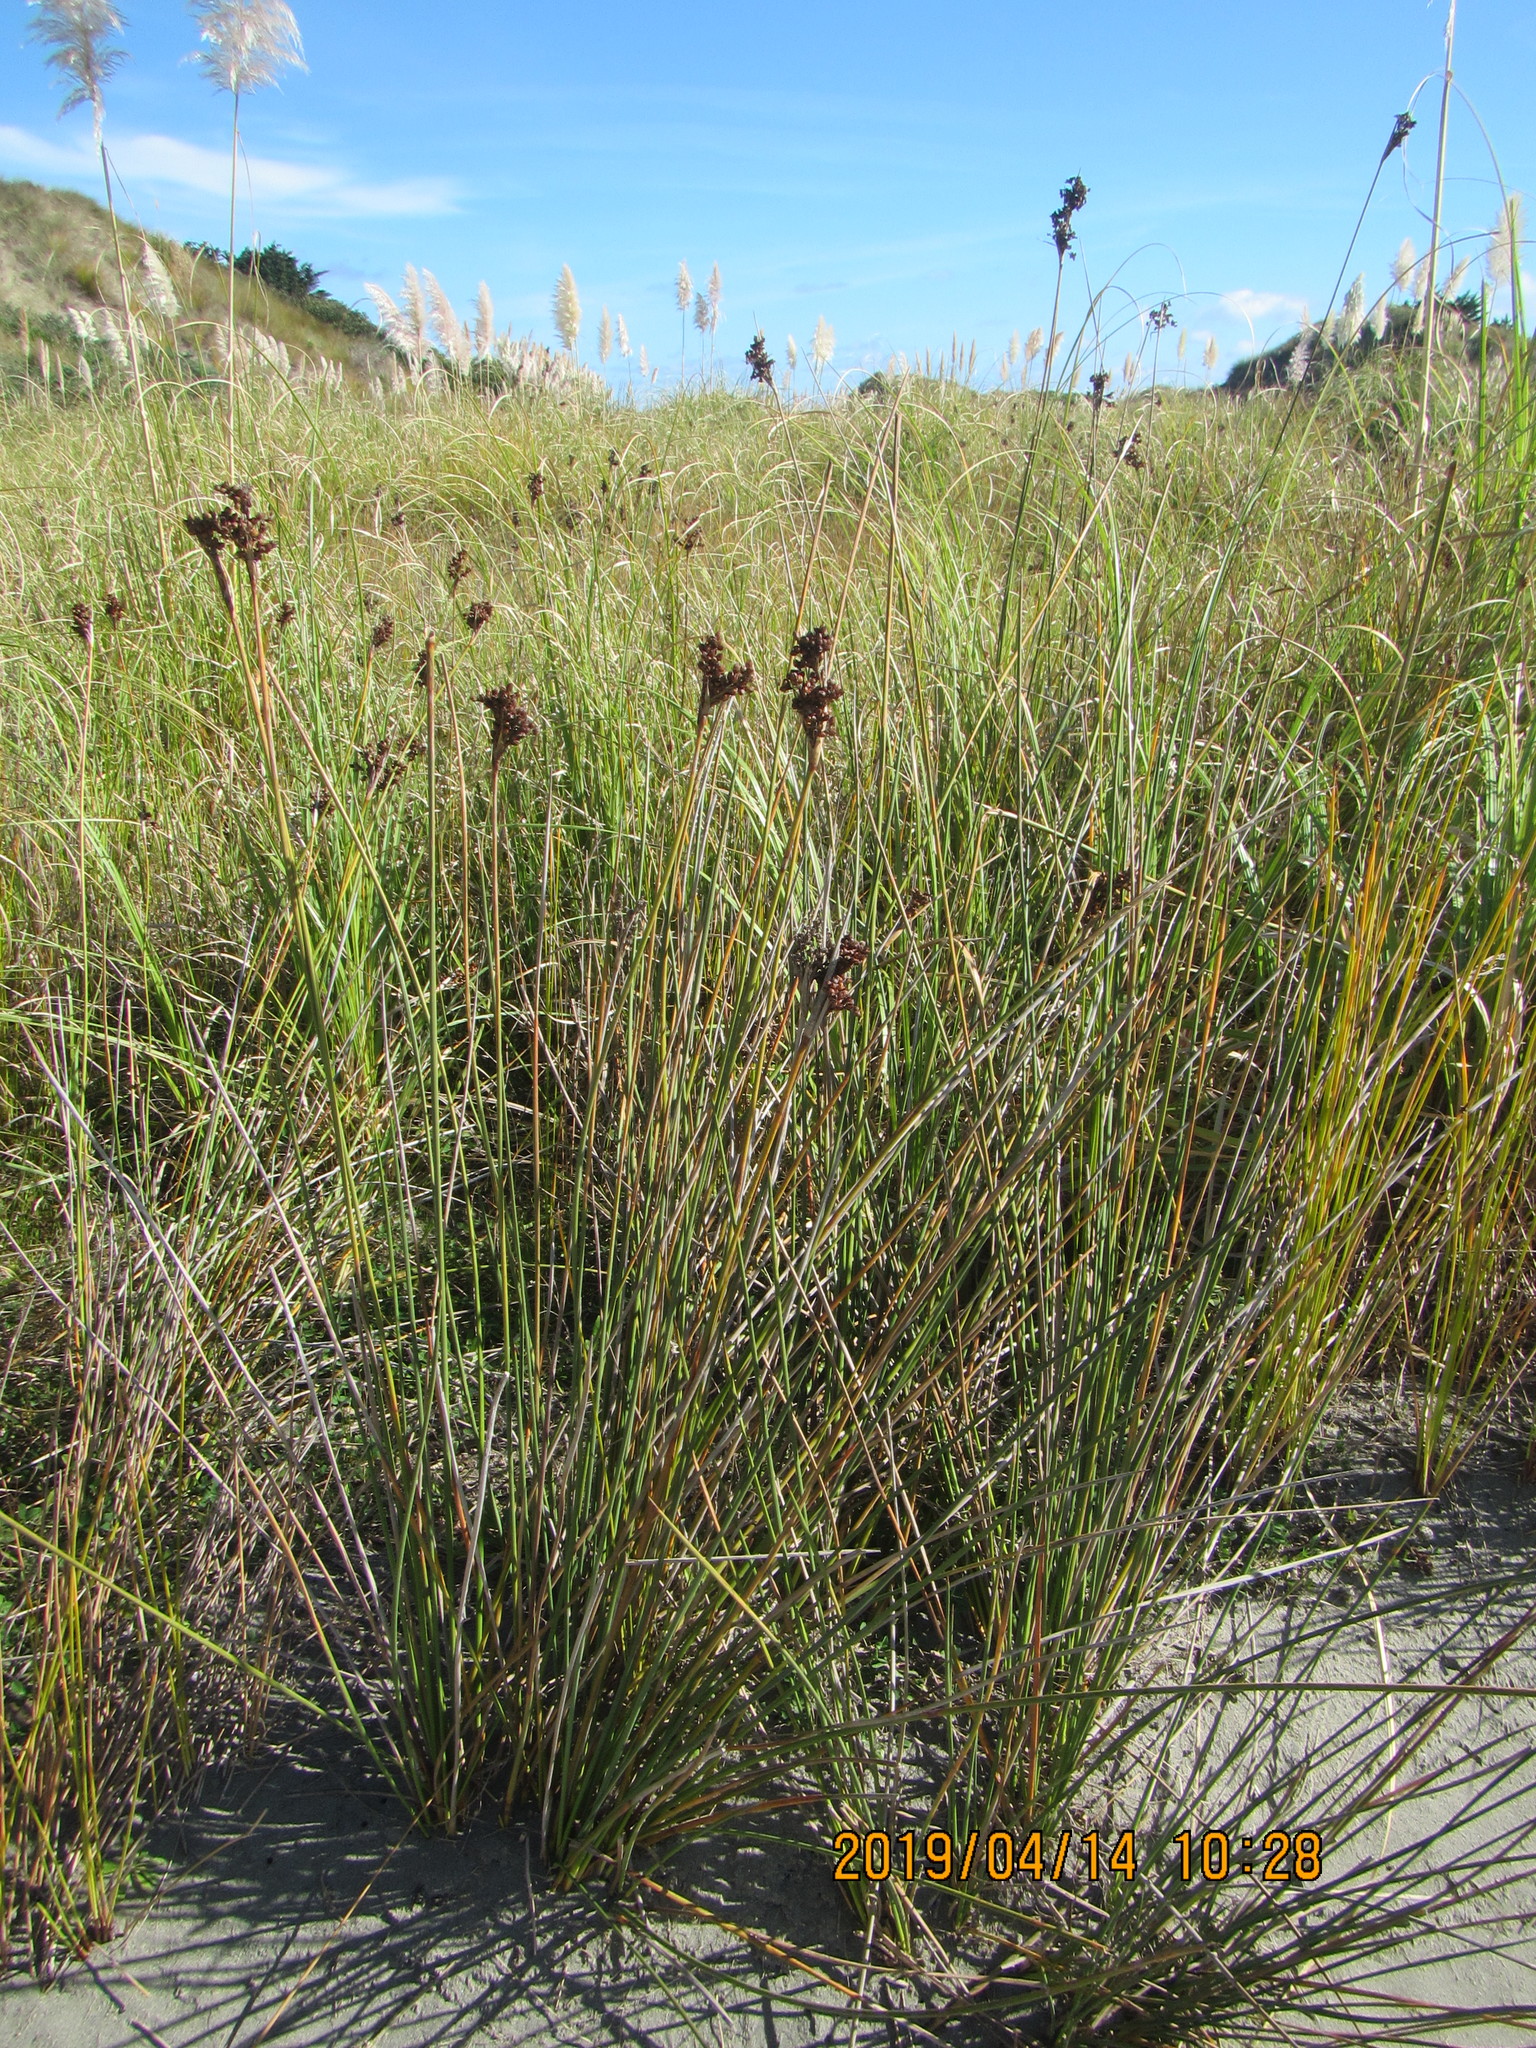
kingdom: Plantae
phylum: Tracheophyta
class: Liliopsida
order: Poales
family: Juncaceae
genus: Juncus
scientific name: Juncus acutus
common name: Sharp rush
